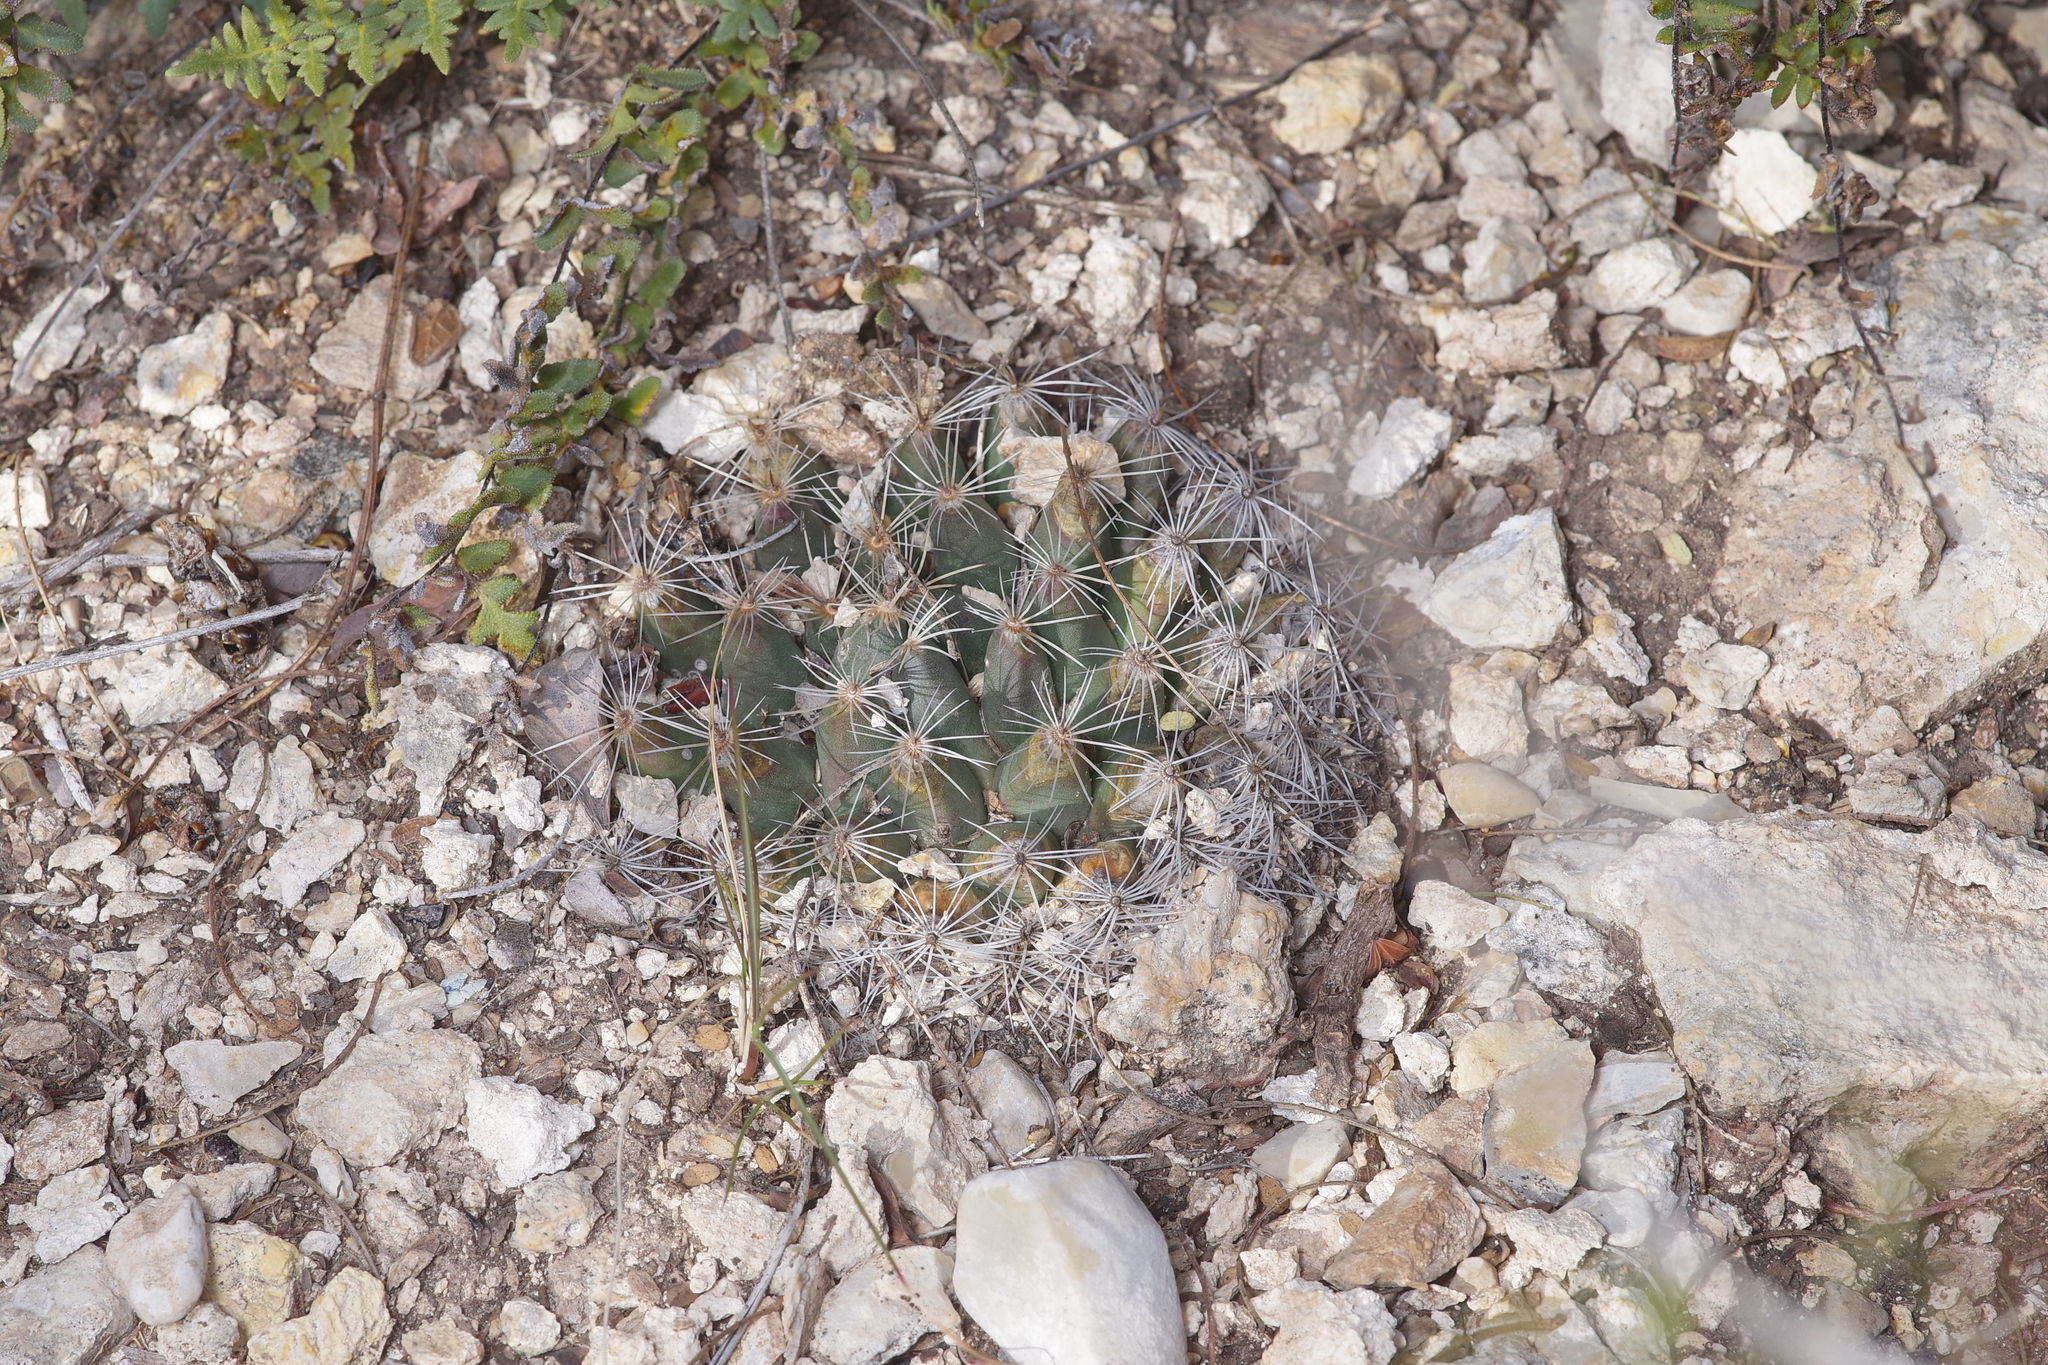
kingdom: Plantae
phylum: Tracheophyta
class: Magnoliopsida
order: Caryophyllales
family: Cactaceae
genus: Mammillaria
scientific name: Mammillaria heyderi
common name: Little nipple cactus
